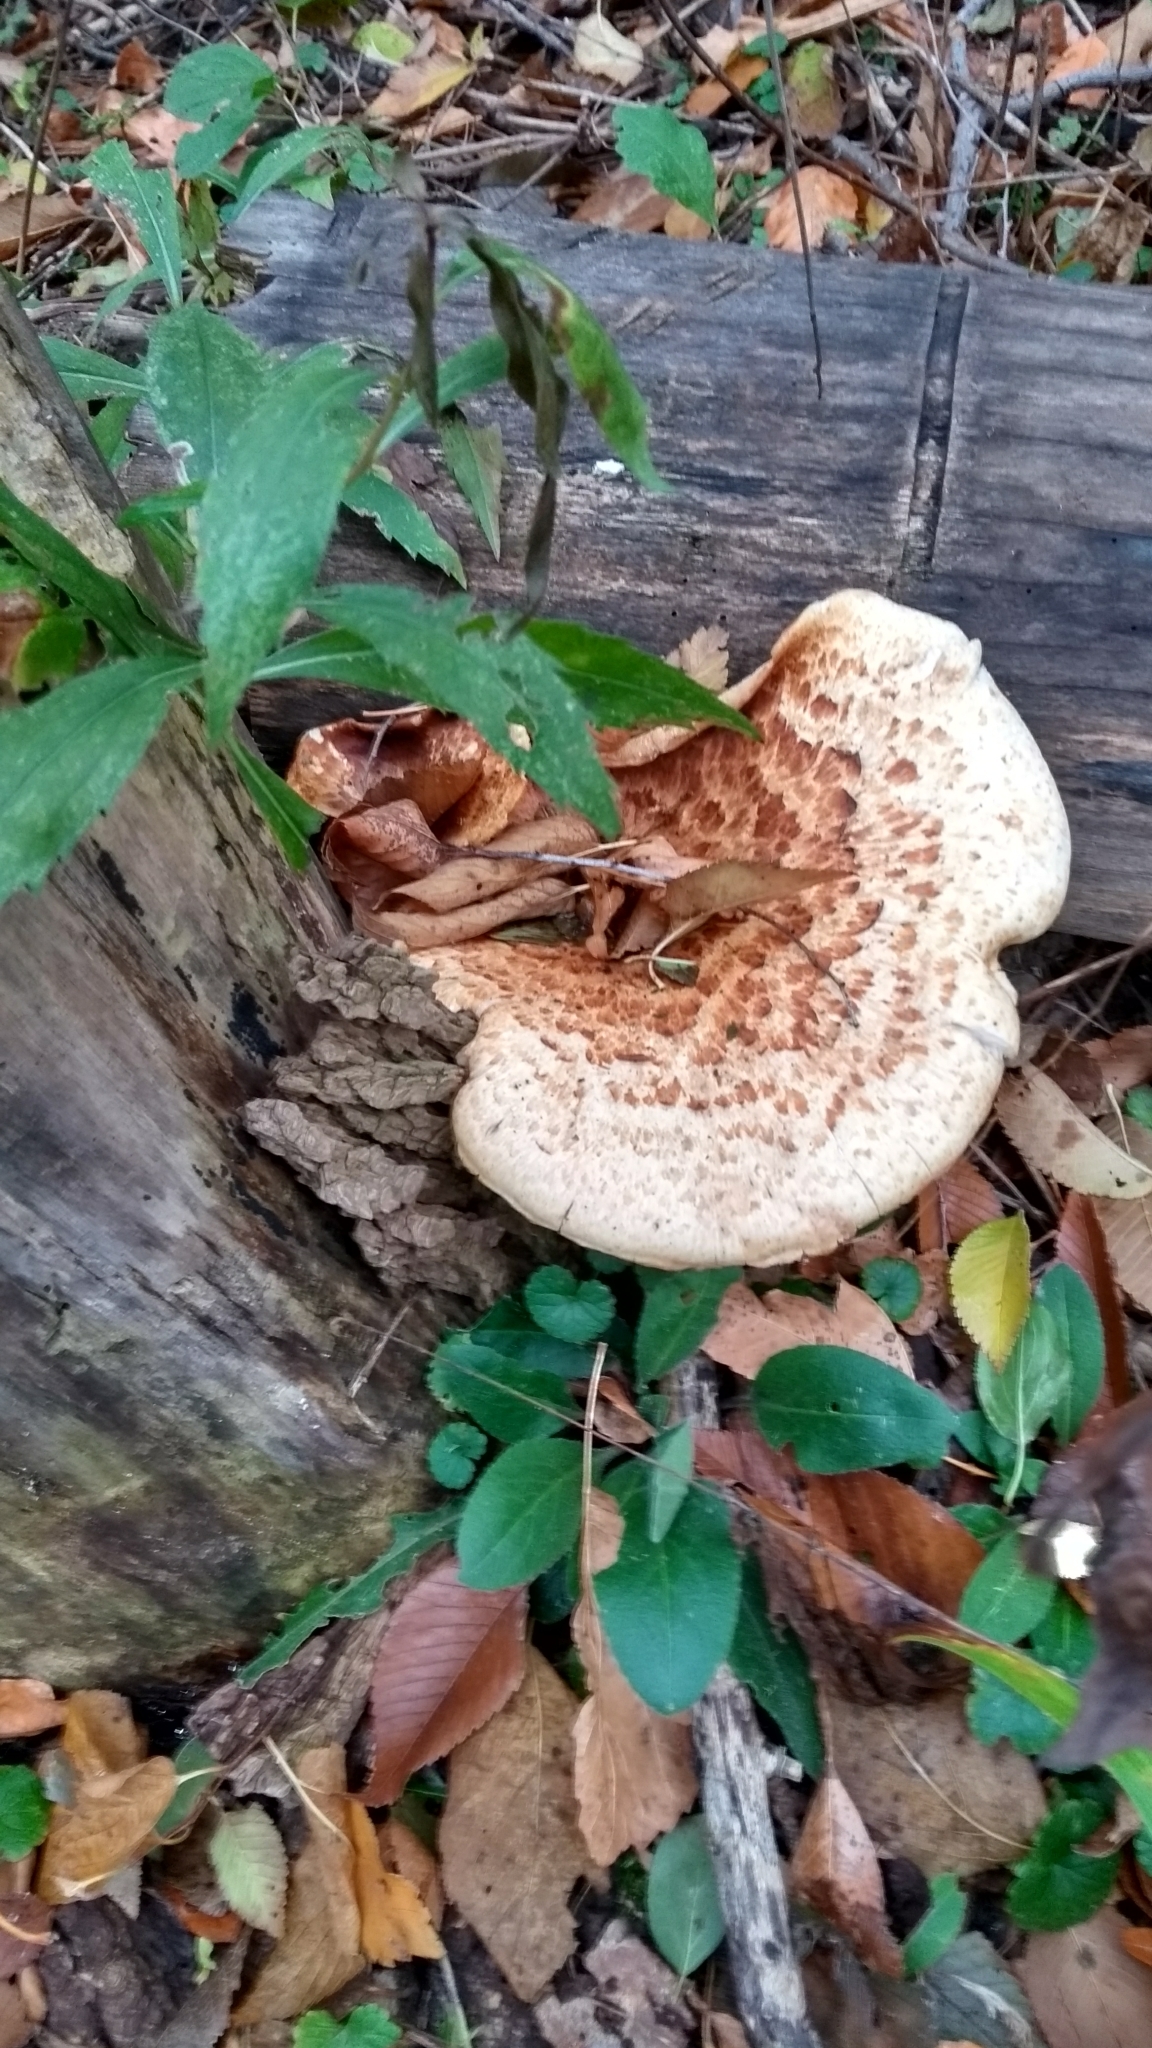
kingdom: Fungi
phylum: Basidiomycota
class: Agaricomycetes
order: Polyporales
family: Polyporaceae
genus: Cerioporus
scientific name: Cerioporus squamosus
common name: Dryad's saddle
